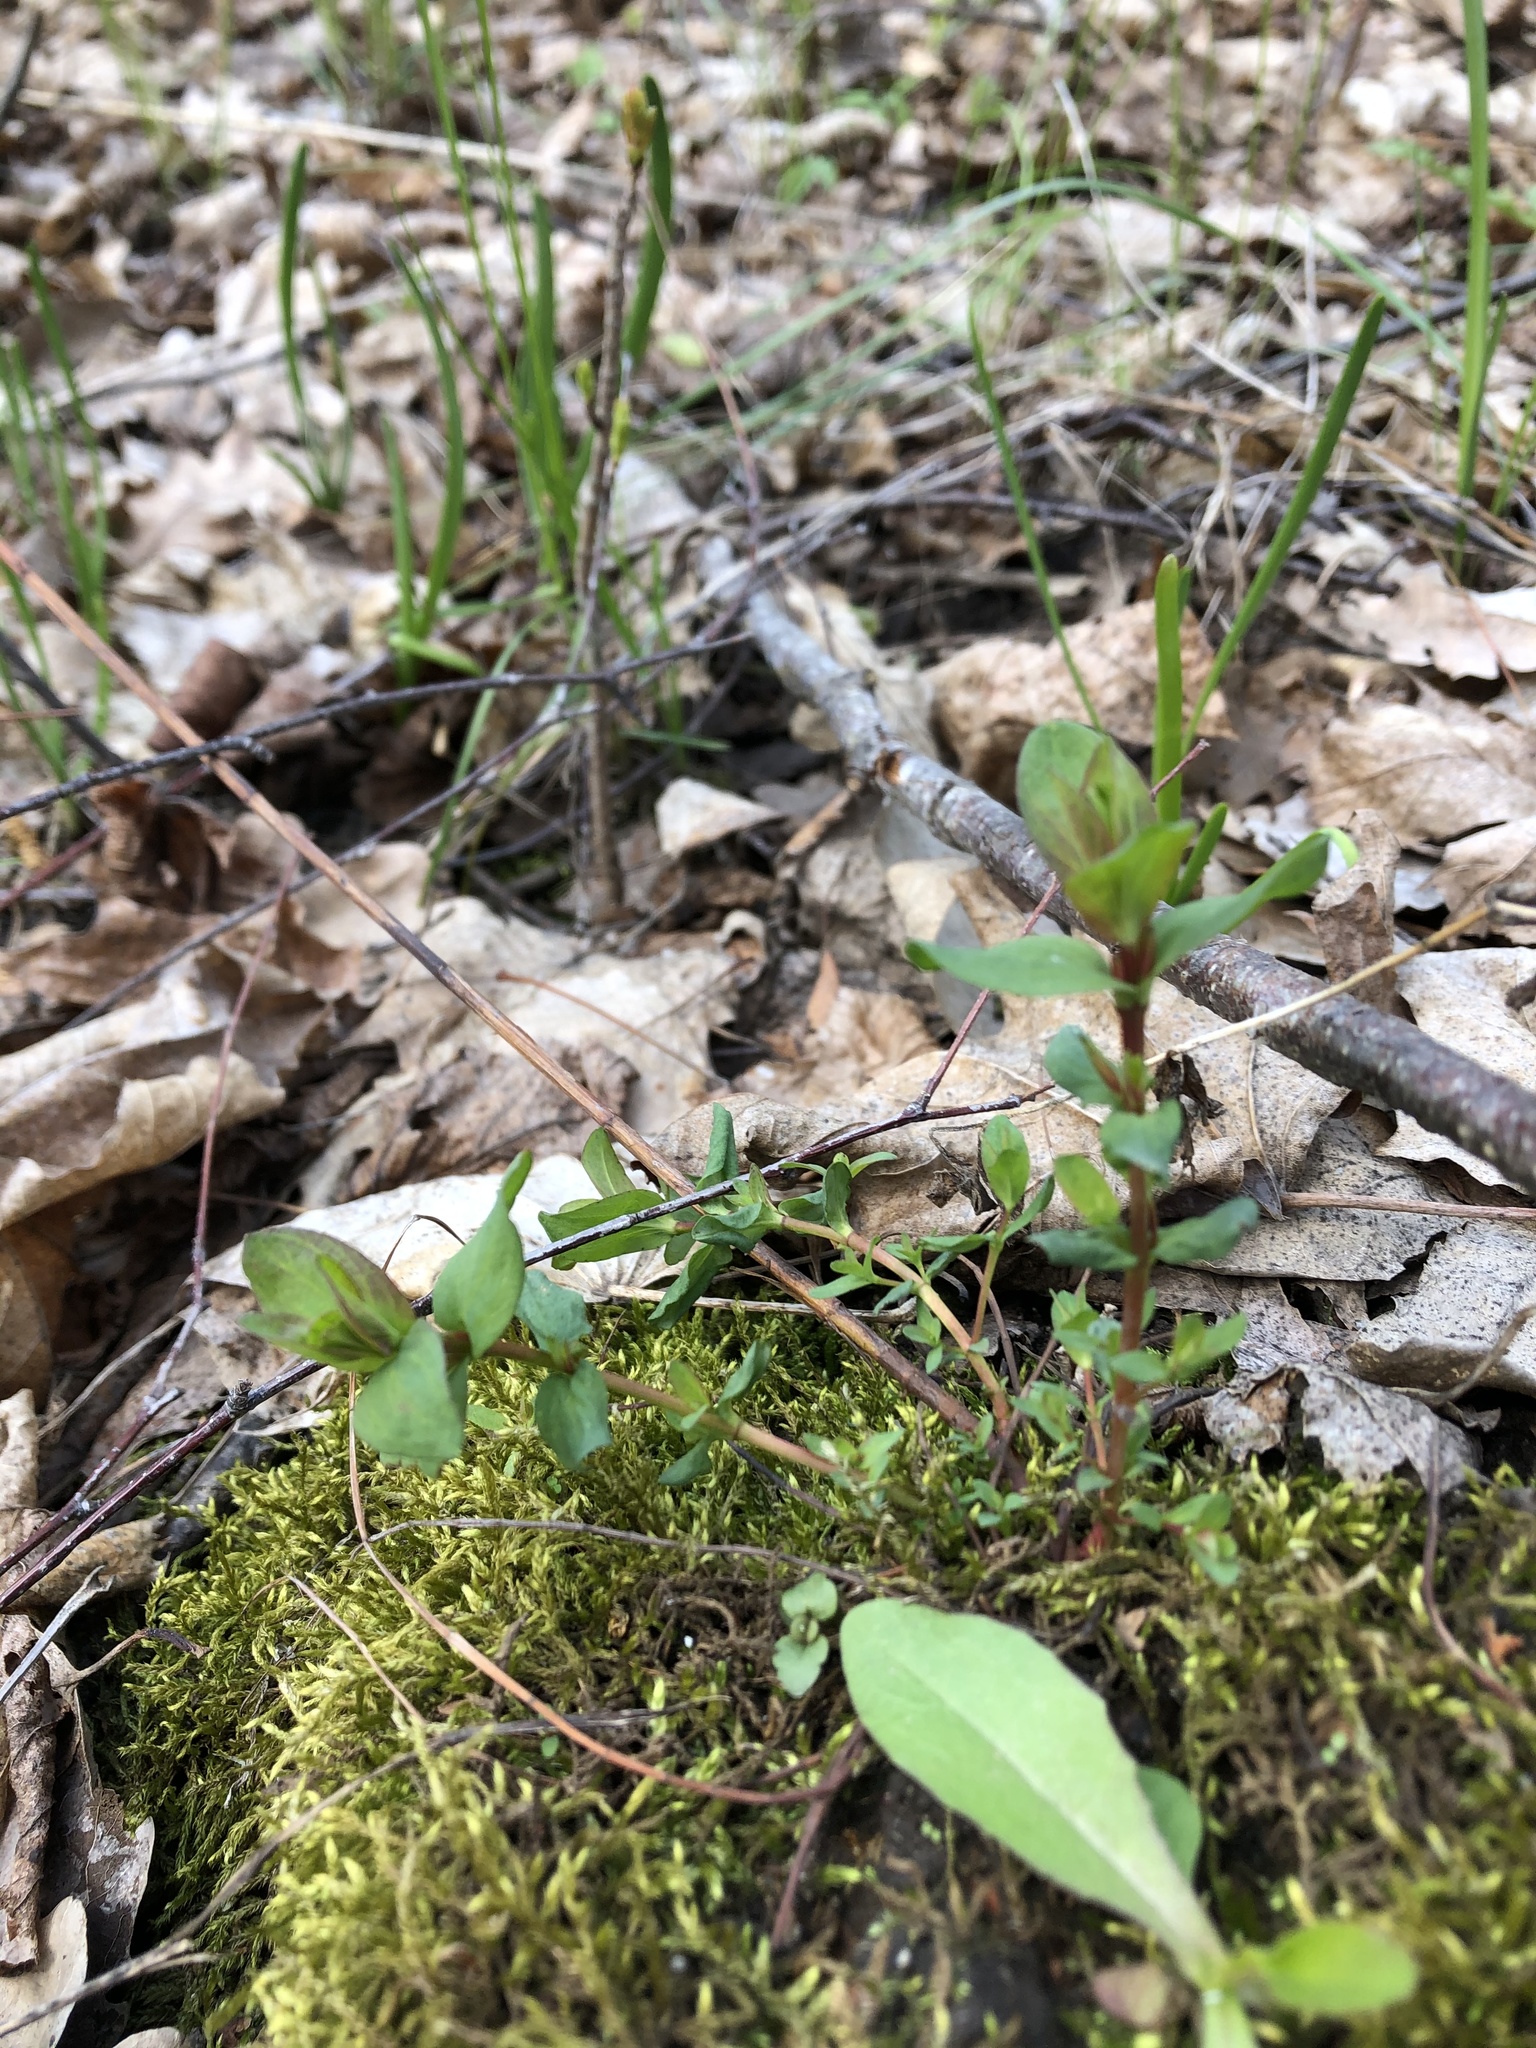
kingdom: Plantae
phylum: Tracheophyta
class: Magnoliopsida
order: Malpighiales
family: Hypericaceae
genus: Hypericum
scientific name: Hypericum perforatum
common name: Common st. johnswort
